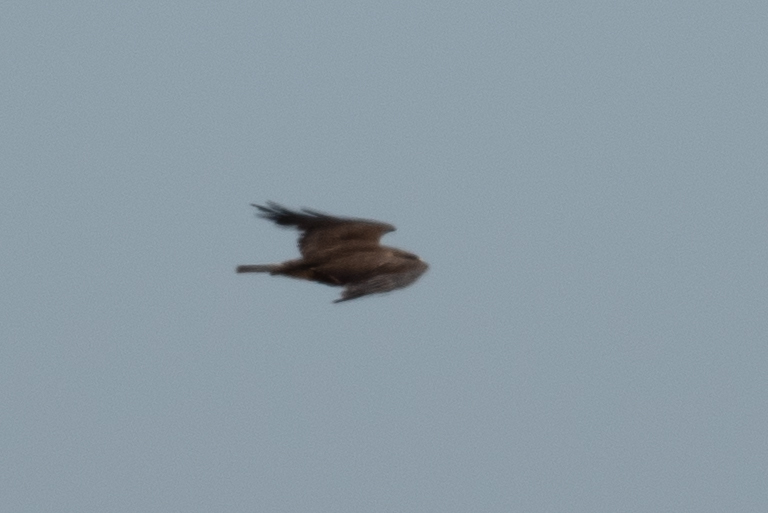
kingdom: Animalia
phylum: Chordata
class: Aves
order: Accipitriformes
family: Accipitridae
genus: Buteo
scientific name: Buteo swainsoni
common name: Swainson's hawk
